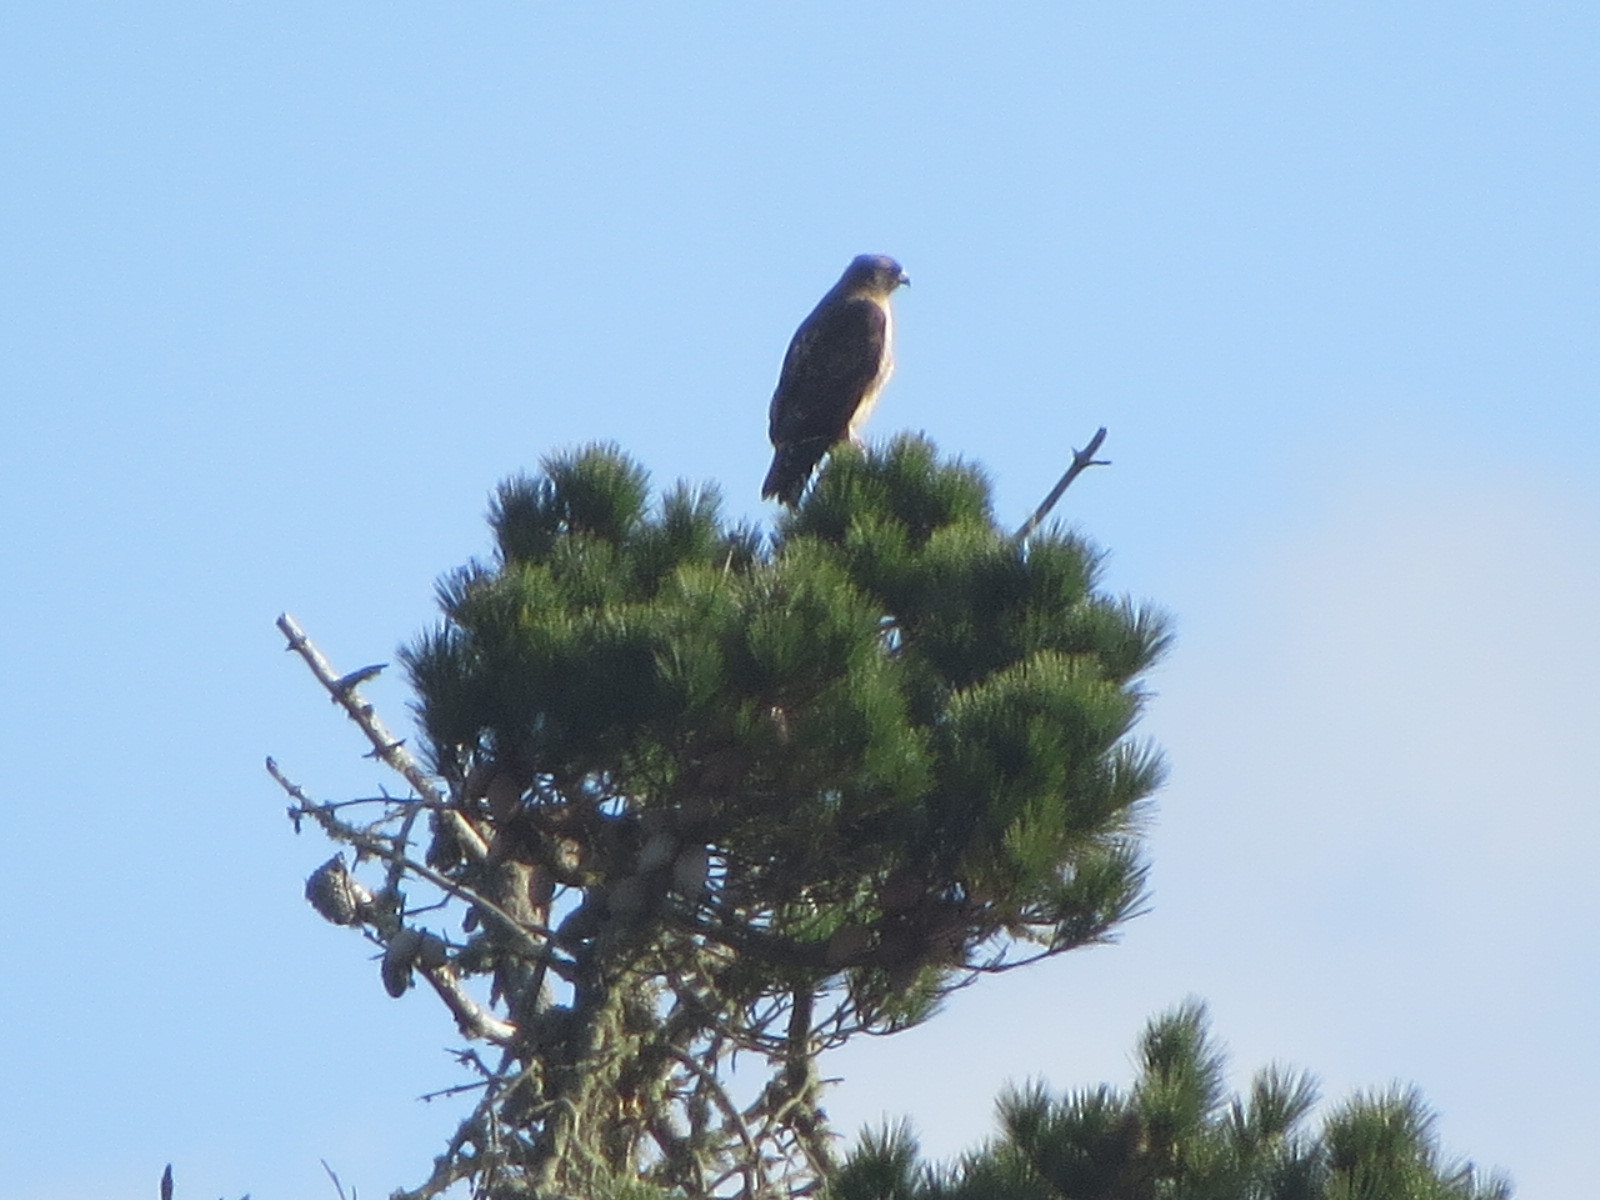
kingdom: Animalia
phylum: Chordata
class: Aves
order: Accipitriformes
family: Accipitridae
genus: Buteo
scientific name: Buteo jamaicensis
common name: Red-tailed hawk
